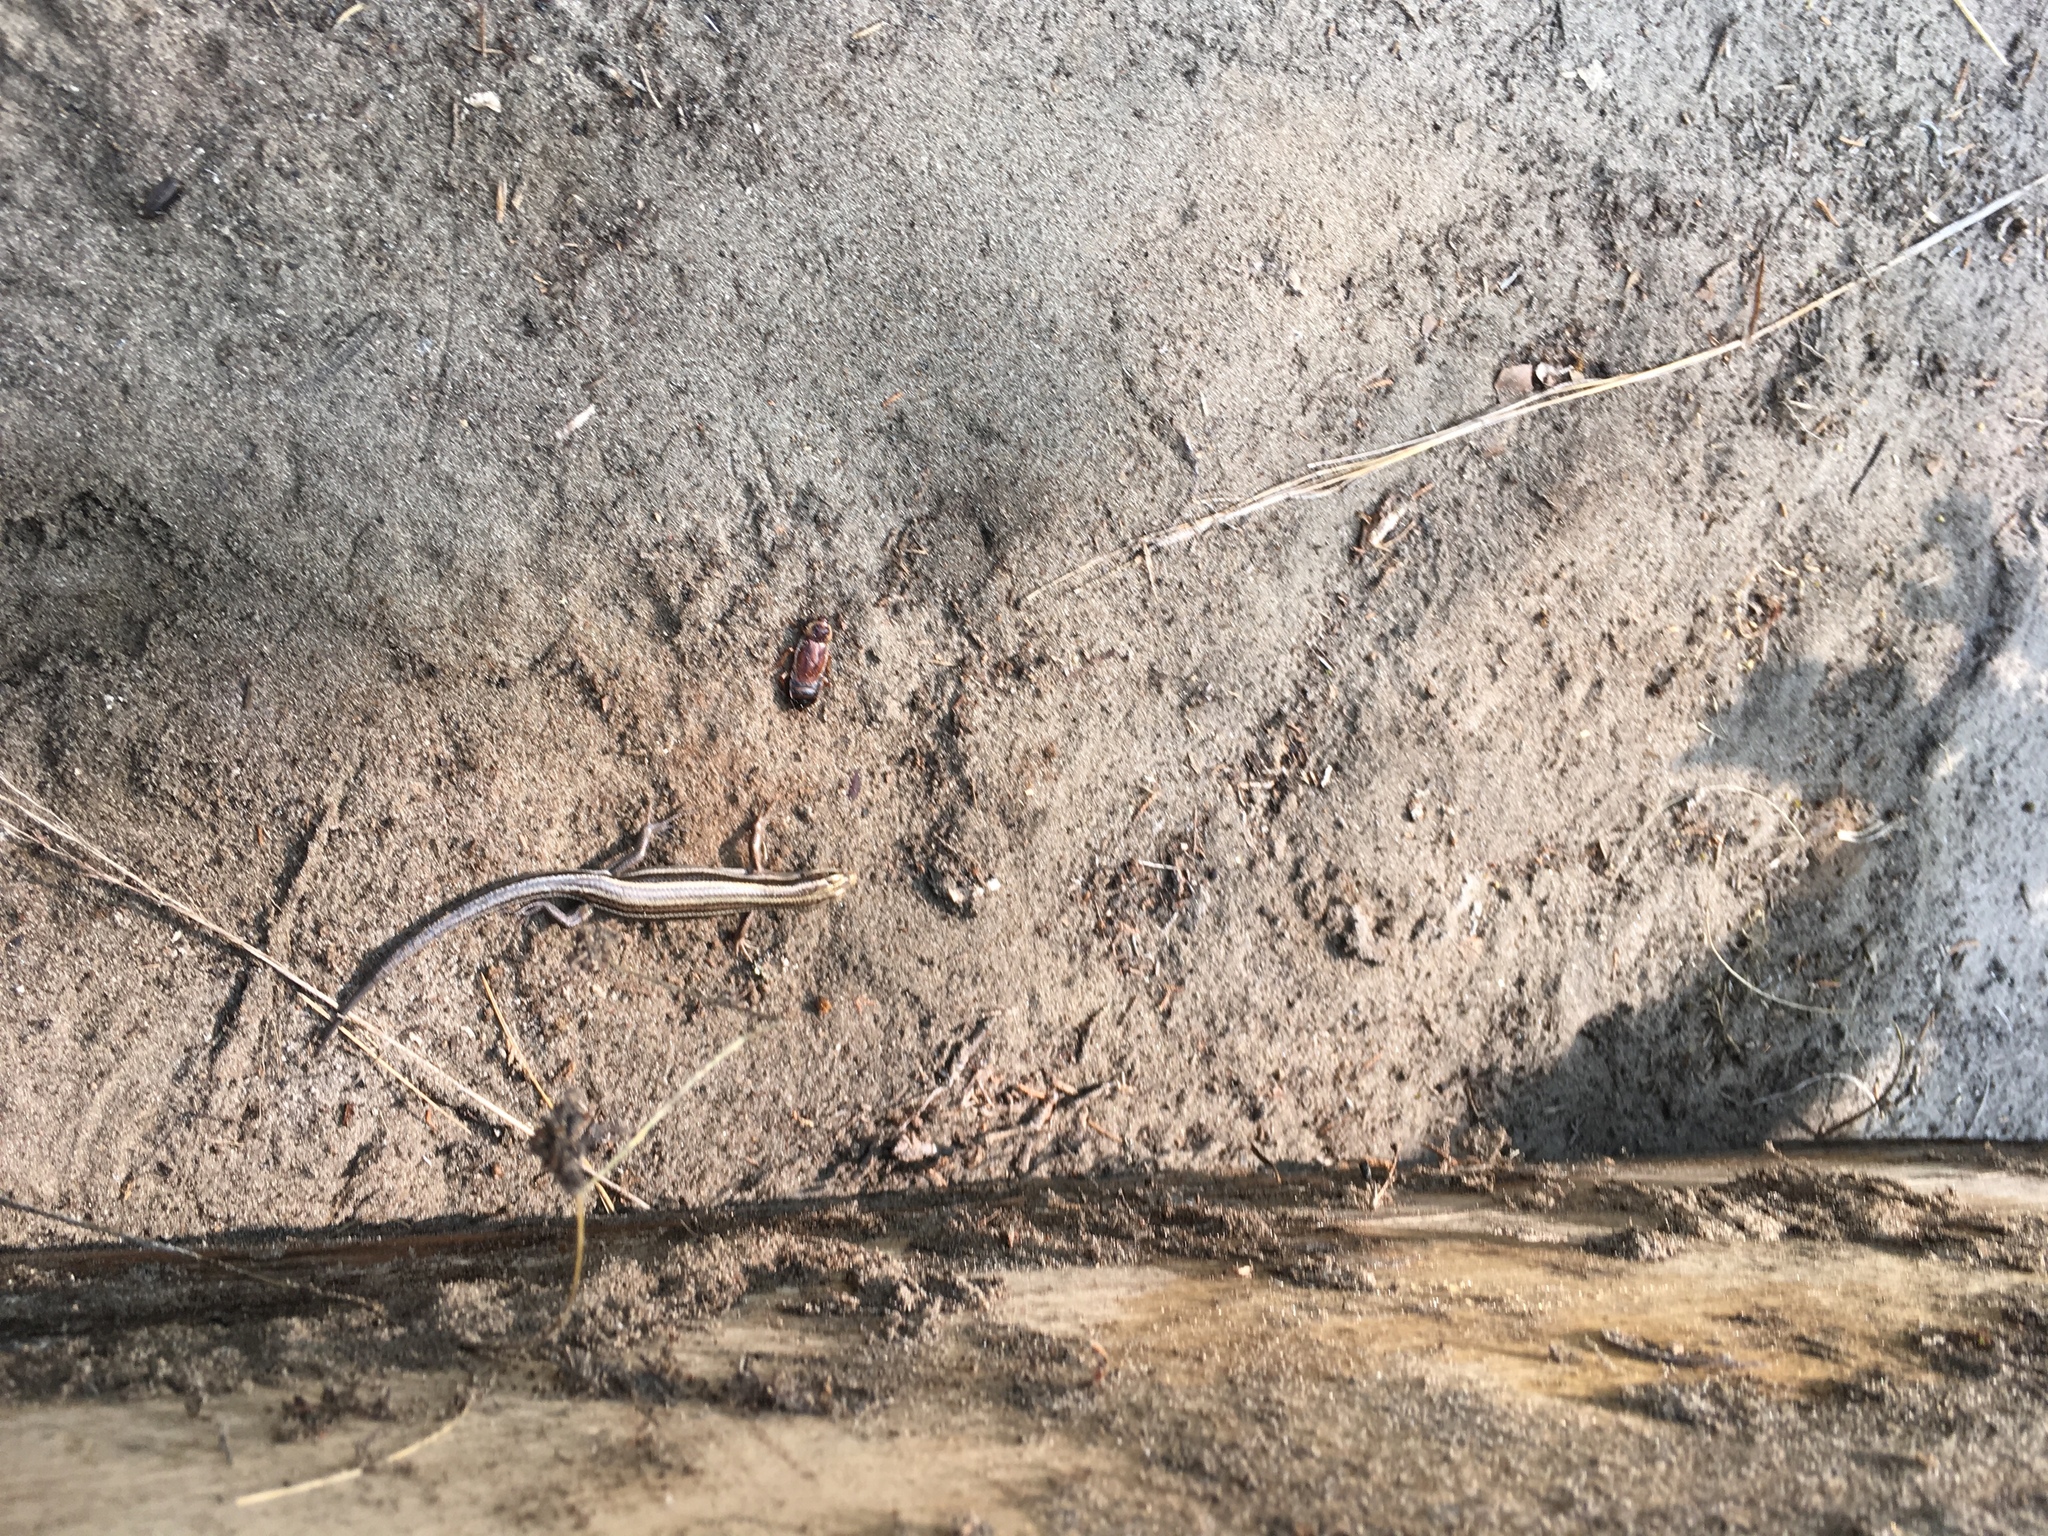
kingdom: Animalia
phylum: Chordata
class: Squamata
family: Scincidae
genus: Plestiodon
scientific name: Plestiodon fasciatus
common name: Five-lined skink
